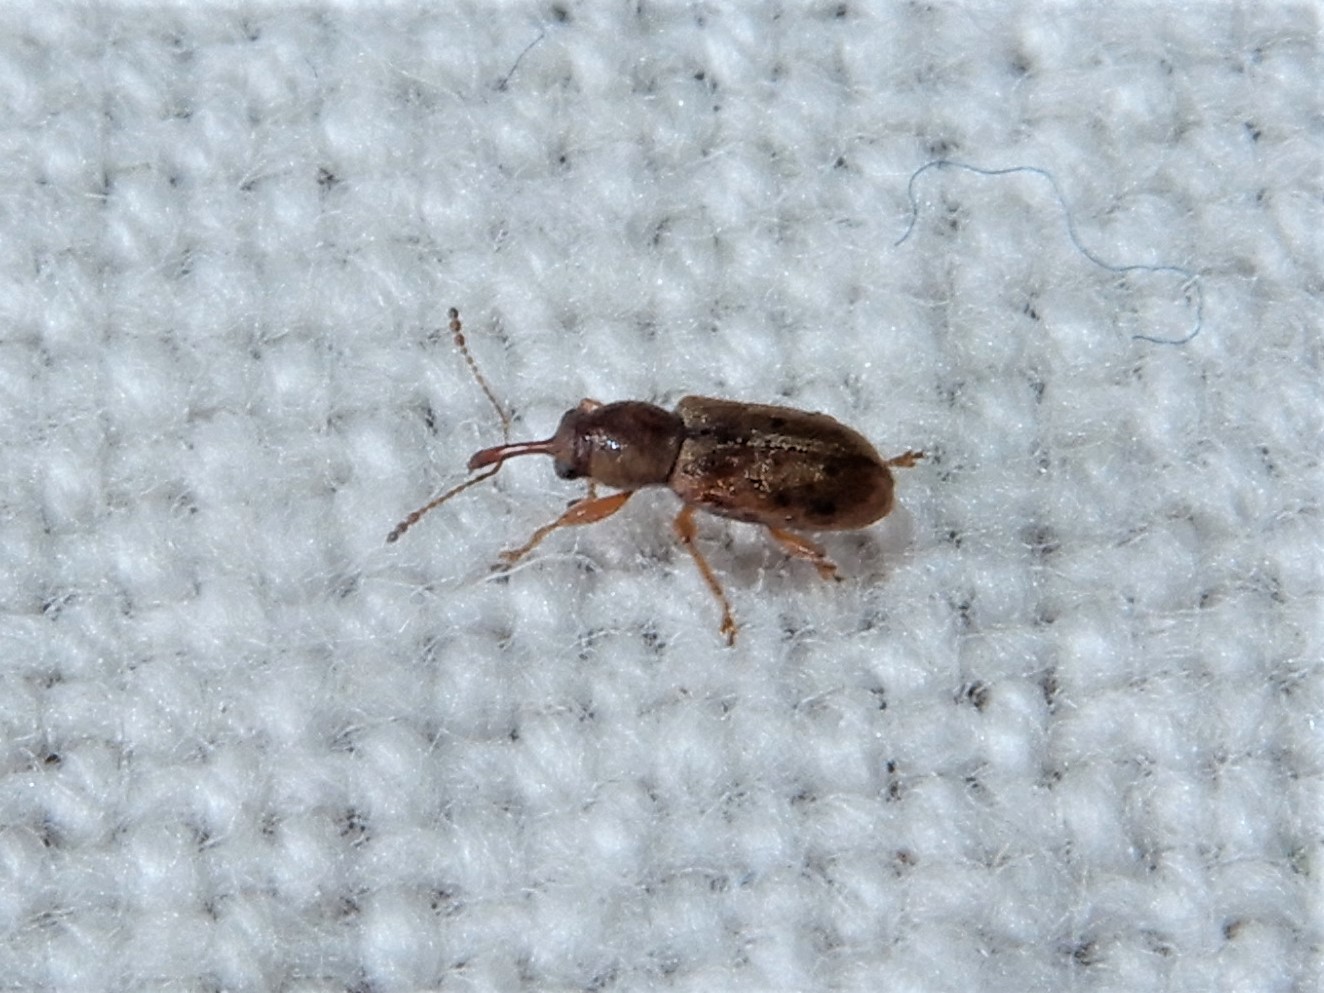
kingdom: Animalia
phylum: Arthropoda
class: Insecta
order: Coleoptera
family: Nemonychidae
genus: Rhinorhynchus
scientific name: Rhinorhynchus rufulus
